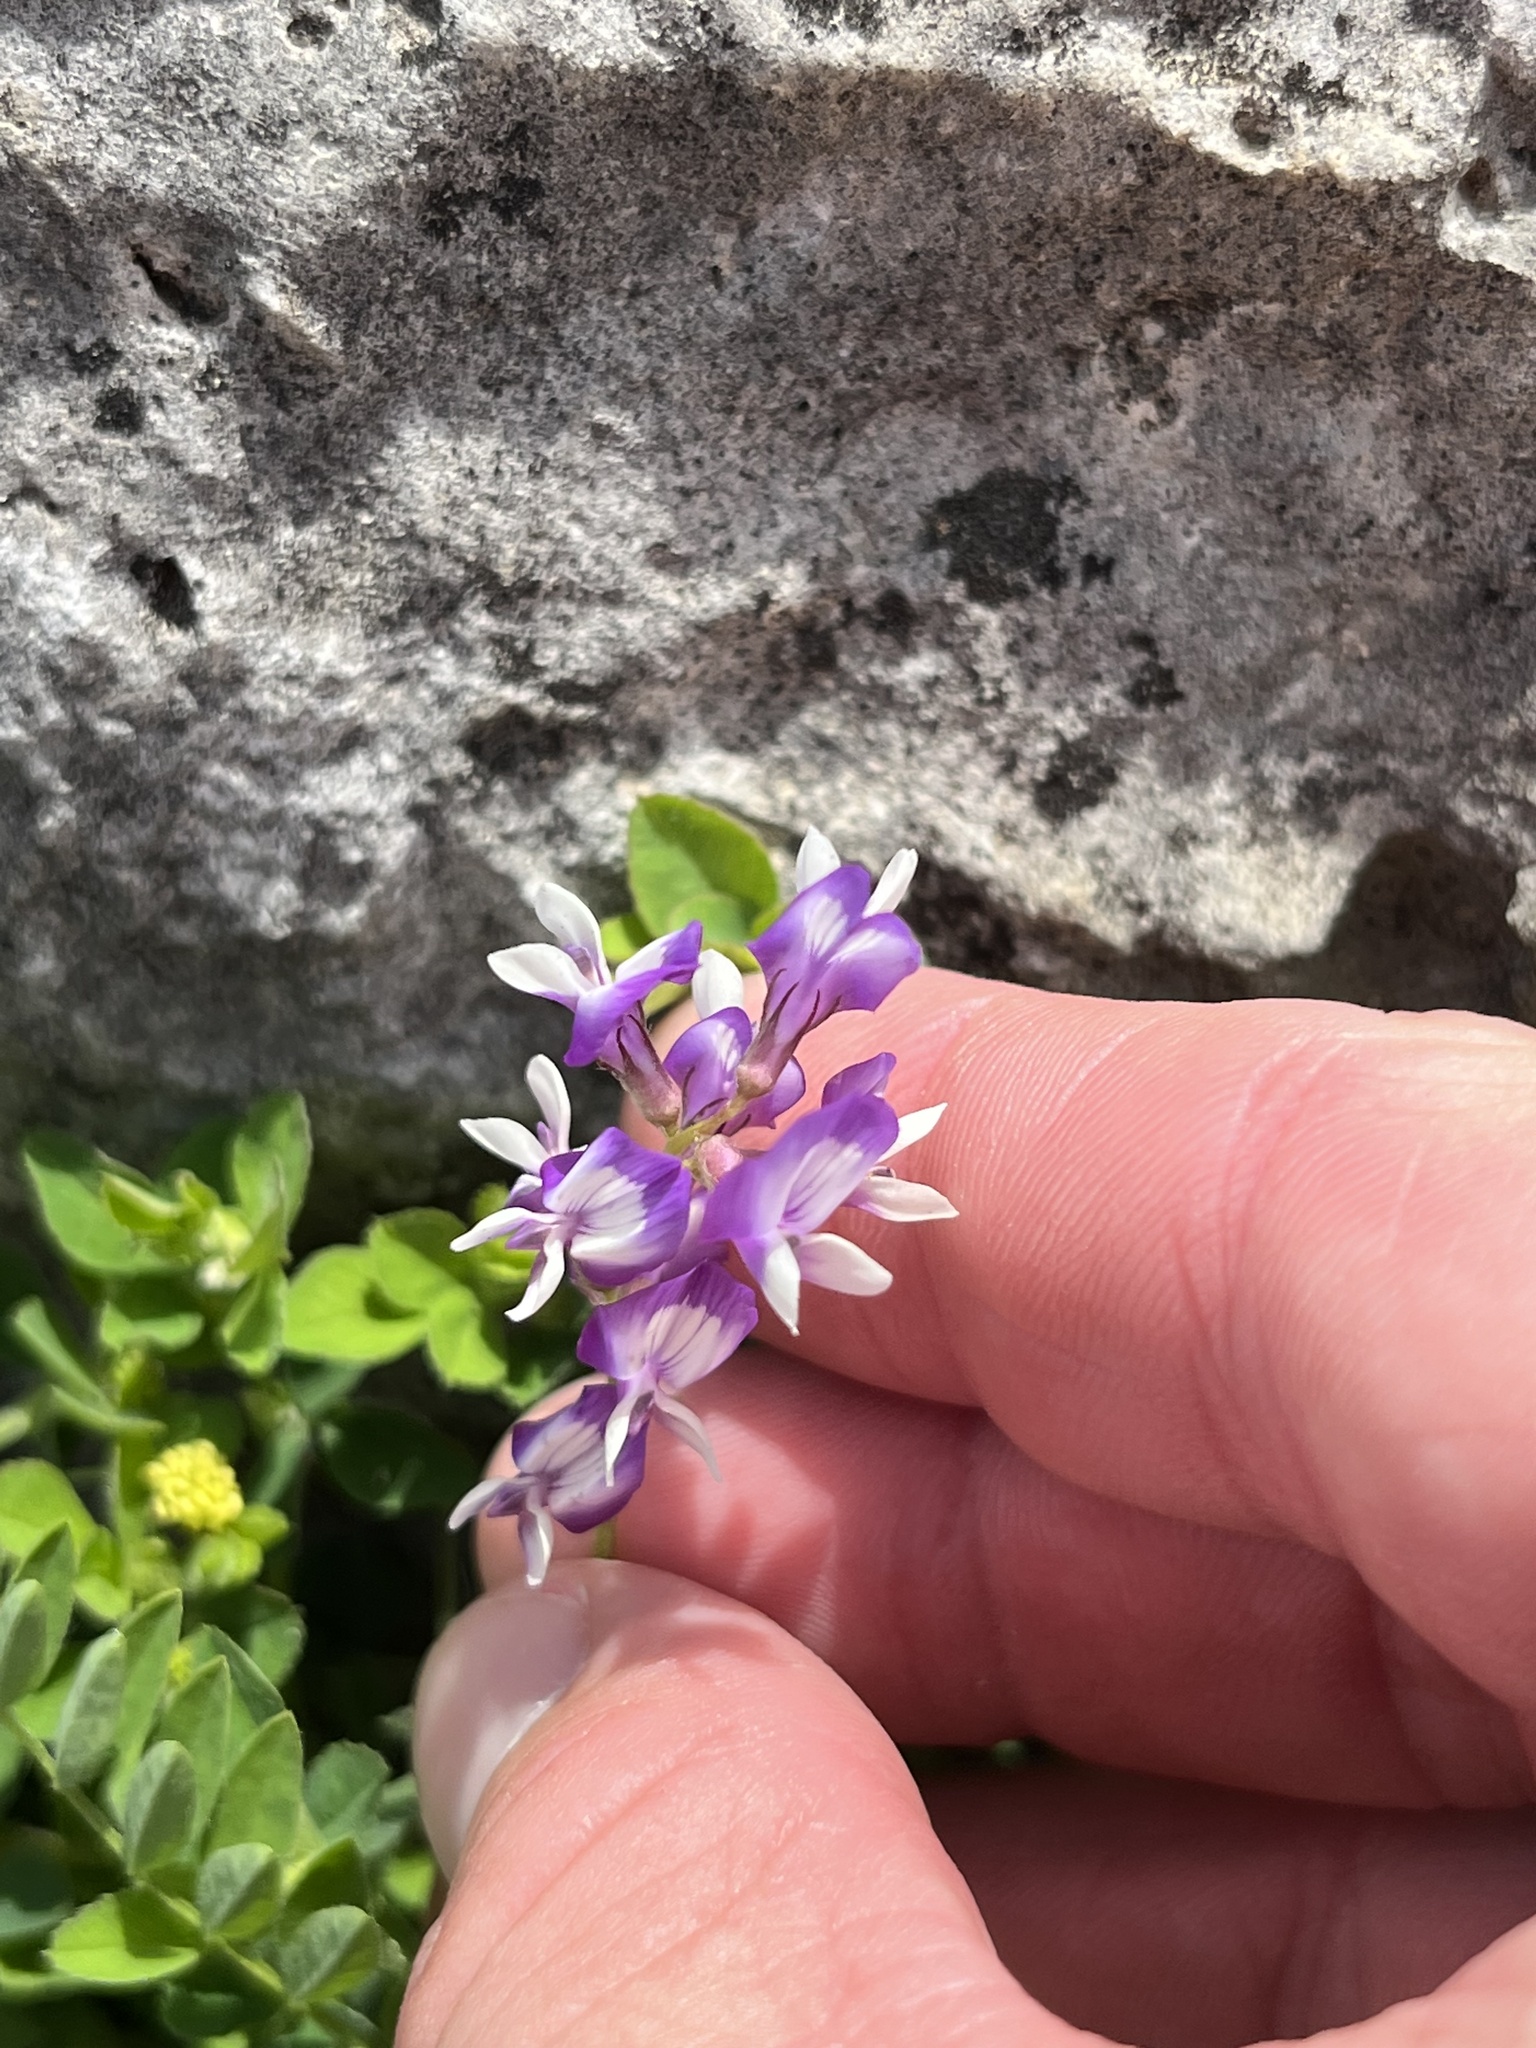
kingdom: Plantae
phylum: Tracheophyta
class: Magnoliopsida
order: Fabales
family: Fabaceae
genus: Astragalus
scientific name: Astragalus nuttallianus
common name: Smallflowered milkvetch
